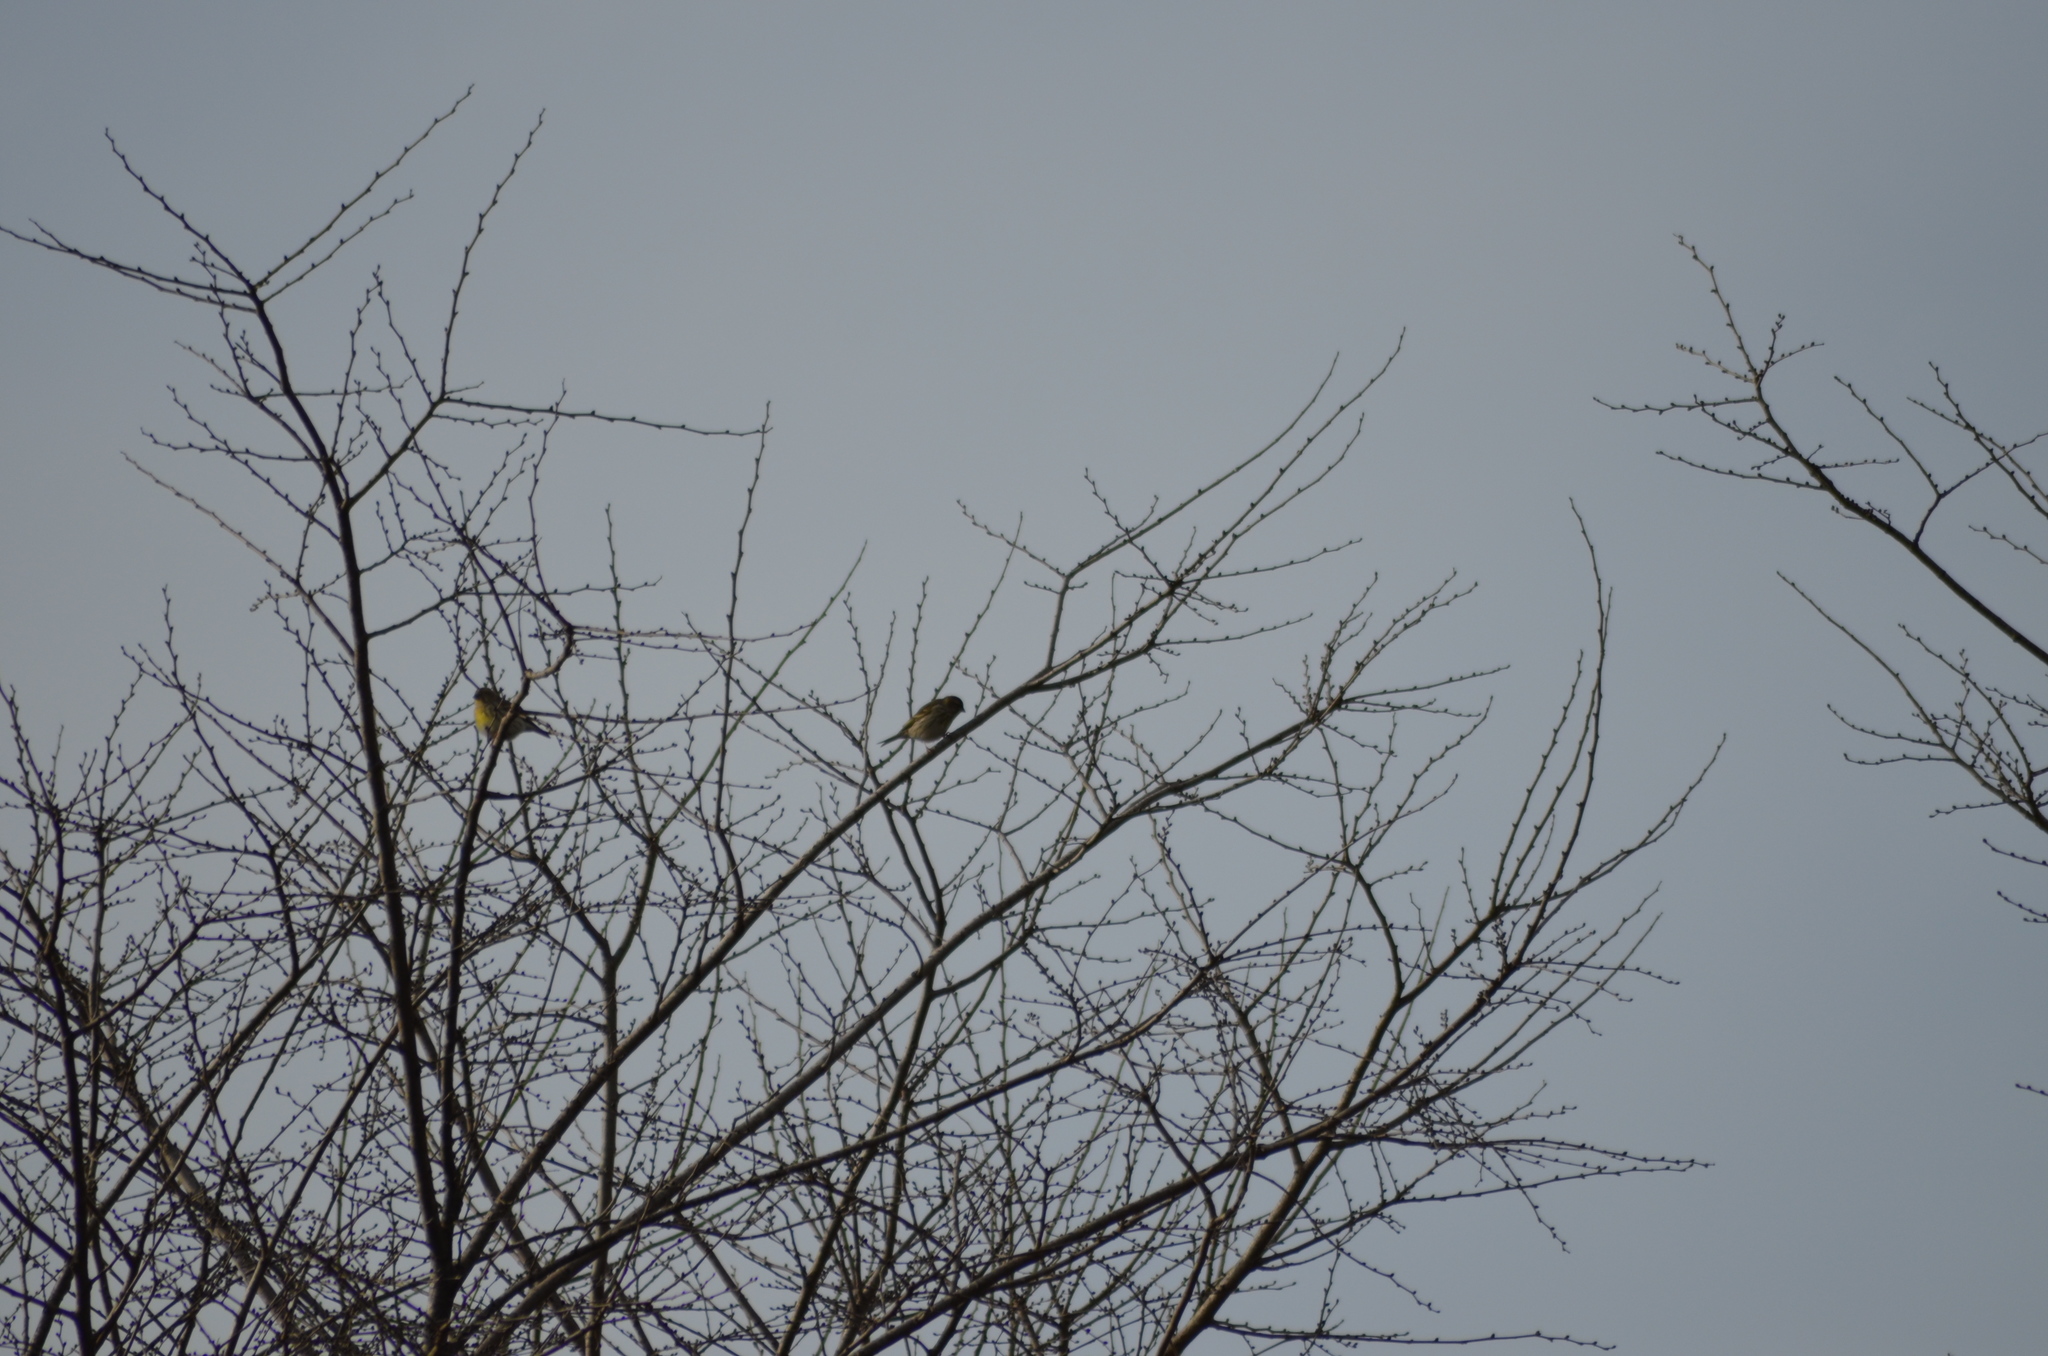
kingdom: Animalia
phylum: Chordata
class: Aves
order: Passeriformes
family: Fringillidae
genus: Serinus
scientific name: Serinus serinus
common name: European serin
